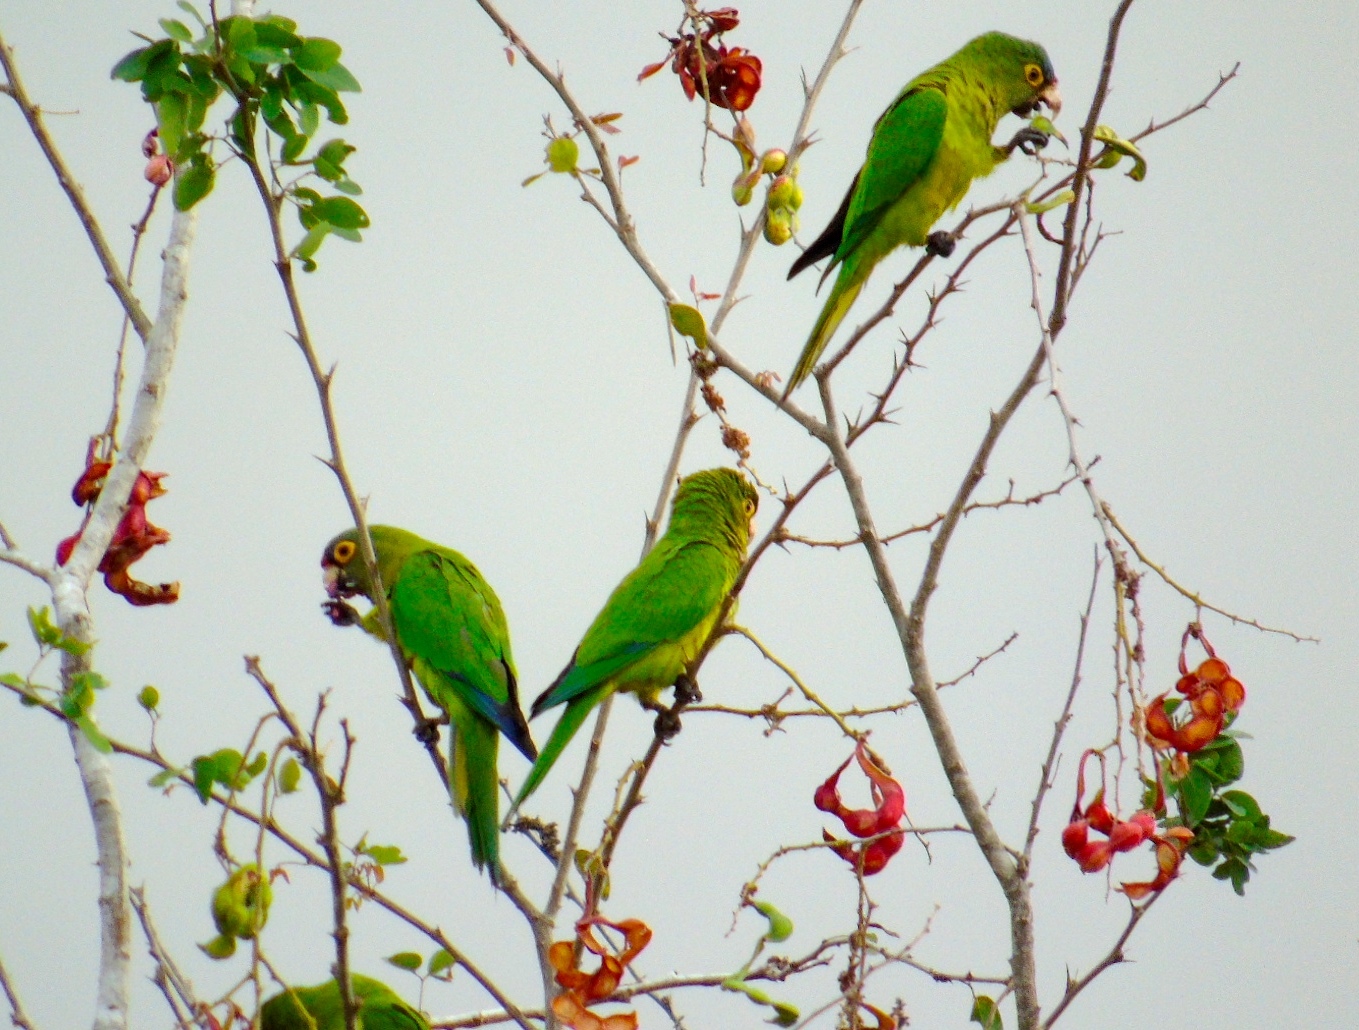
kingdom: Animalia
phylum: Chordata
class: Aves
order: Psittaciformes
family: Psittacidae
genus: Aratinga
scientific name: Aratinga canicularis
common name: Orange-fronted parakeet
